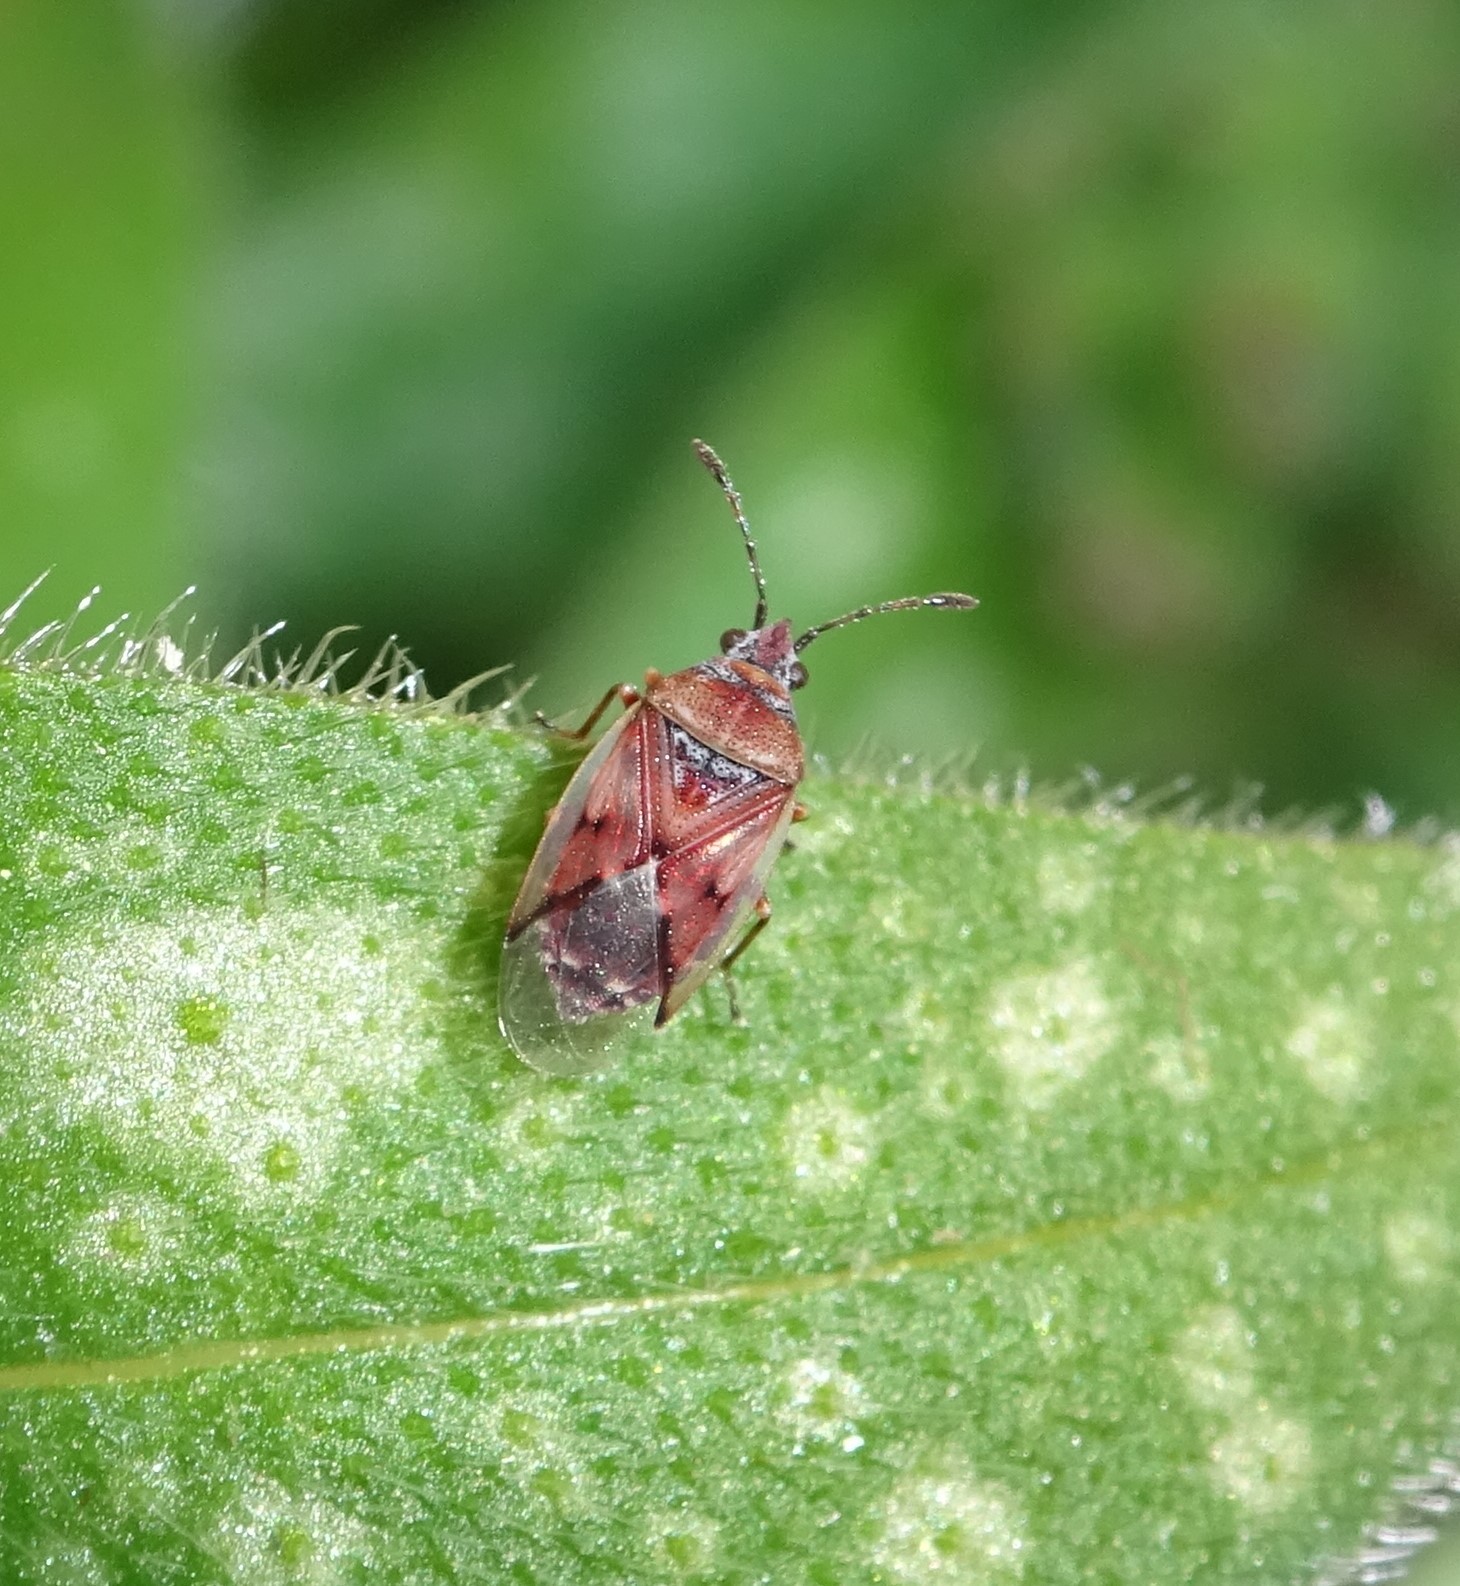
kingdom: Animalia
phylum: Arthropoda
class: Insecta
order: Hemiptera
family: Lygaeidae
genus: Kleidocerys
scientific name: Kleidocerys resedae
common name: Birch catkin bug
